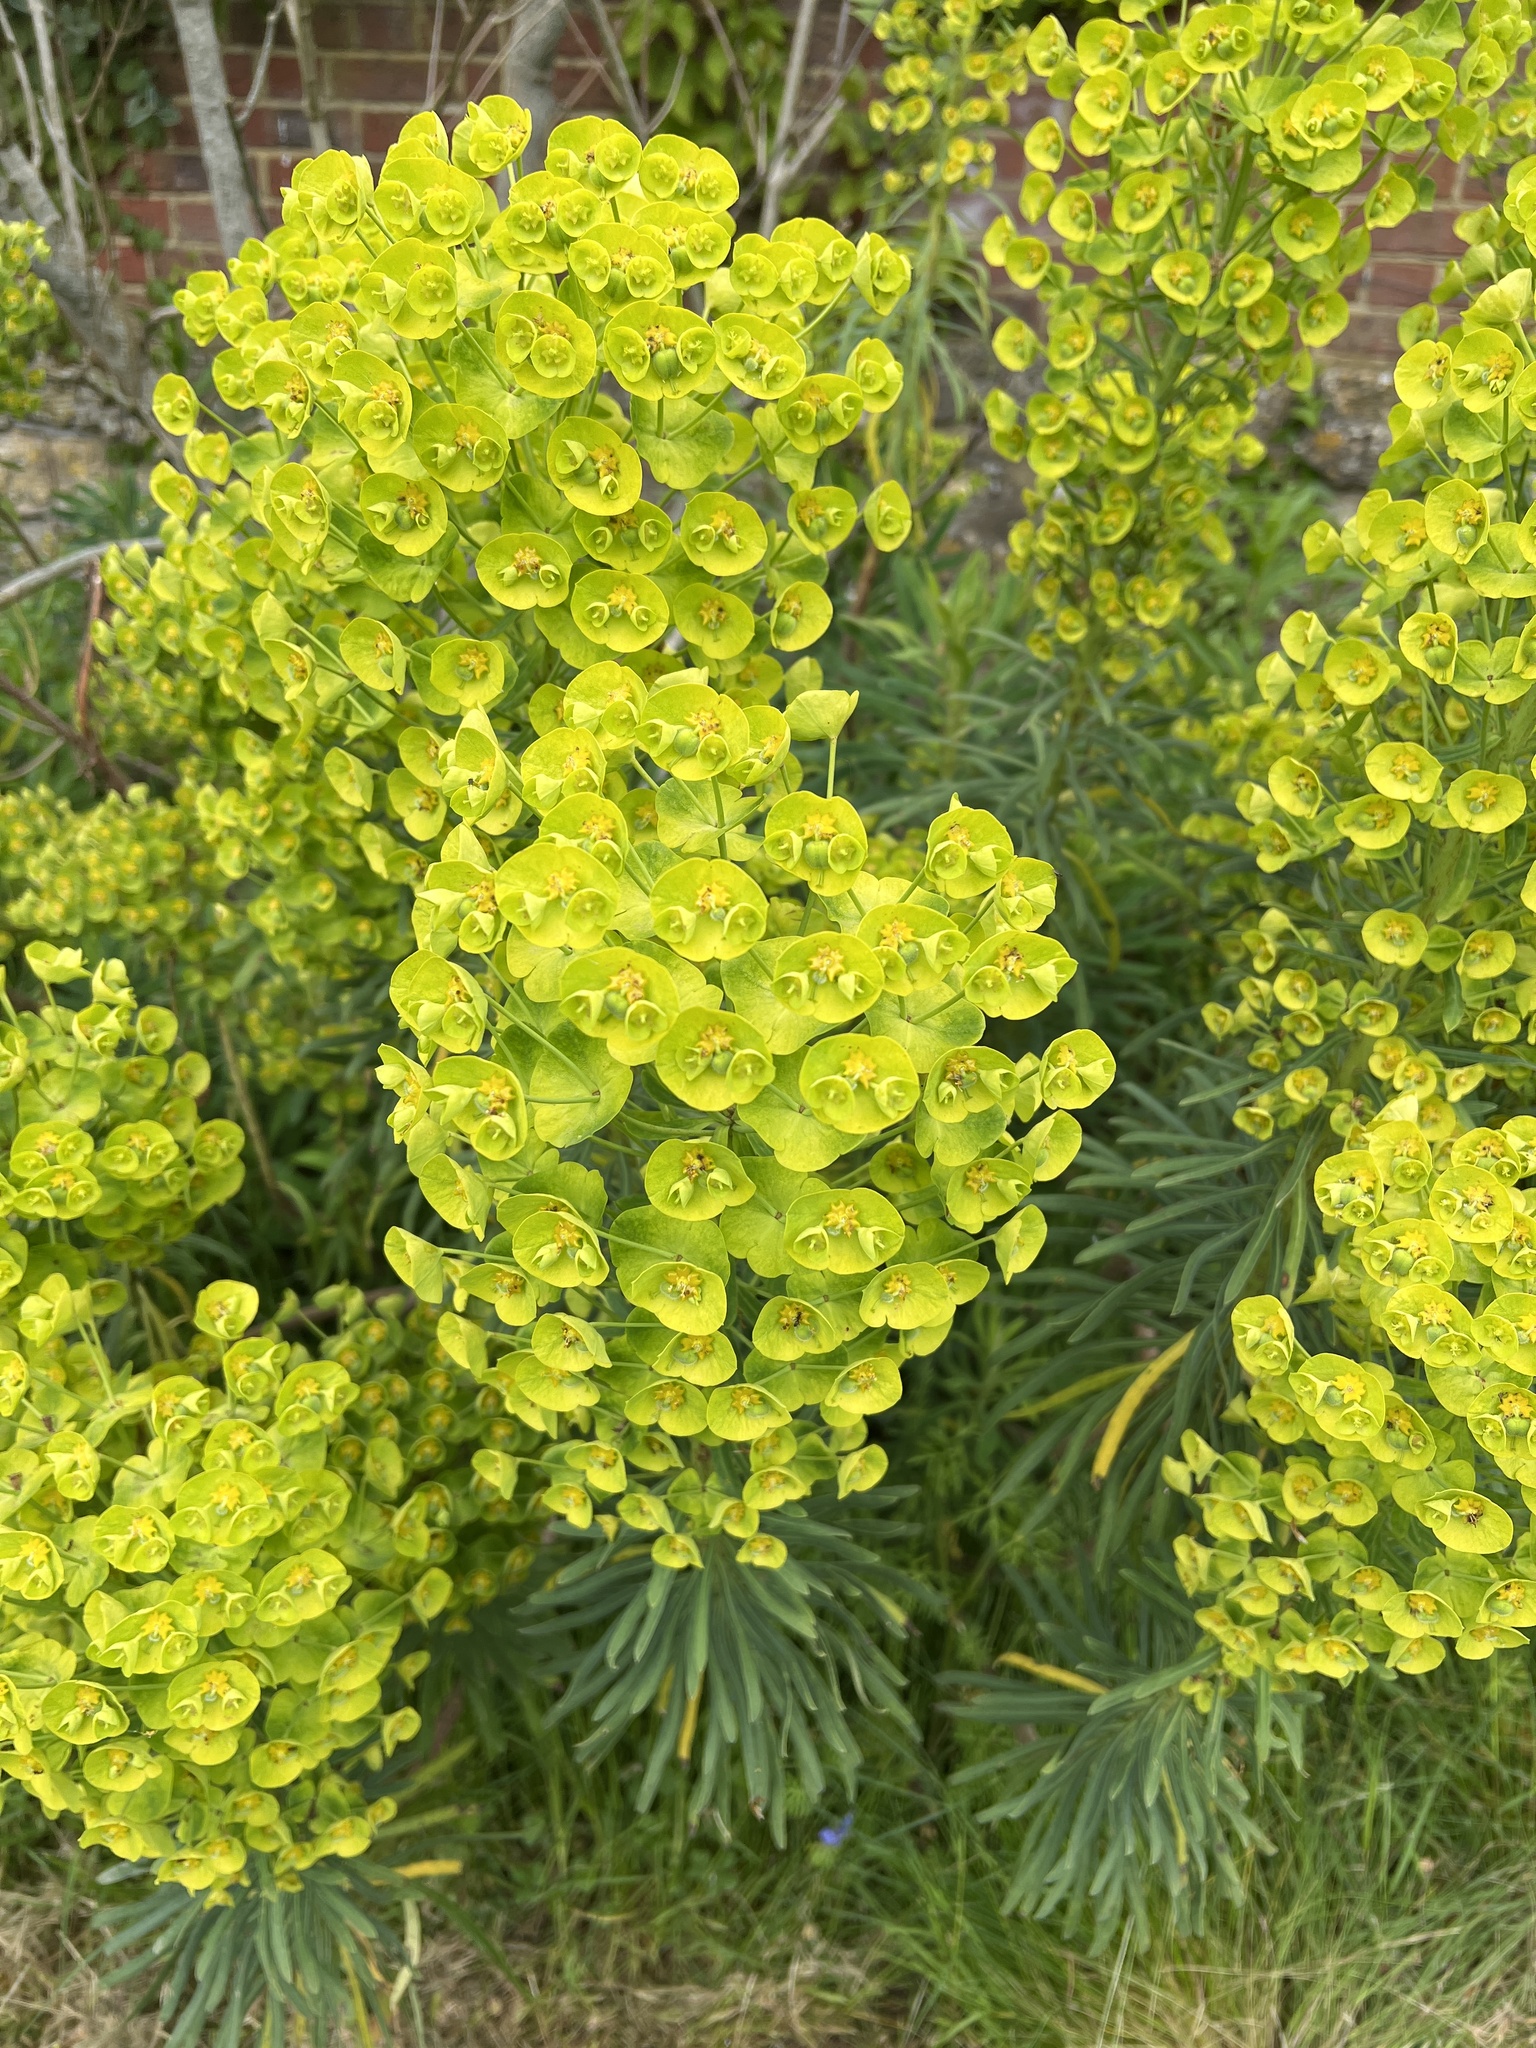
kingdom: Plantae
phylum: Tracheophyta
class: Magnoliopsida
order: Malpighiales
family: Euphorbiaceae
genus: Euphorbia
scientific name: Euphorbia characias
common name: Mediterranean spurge
